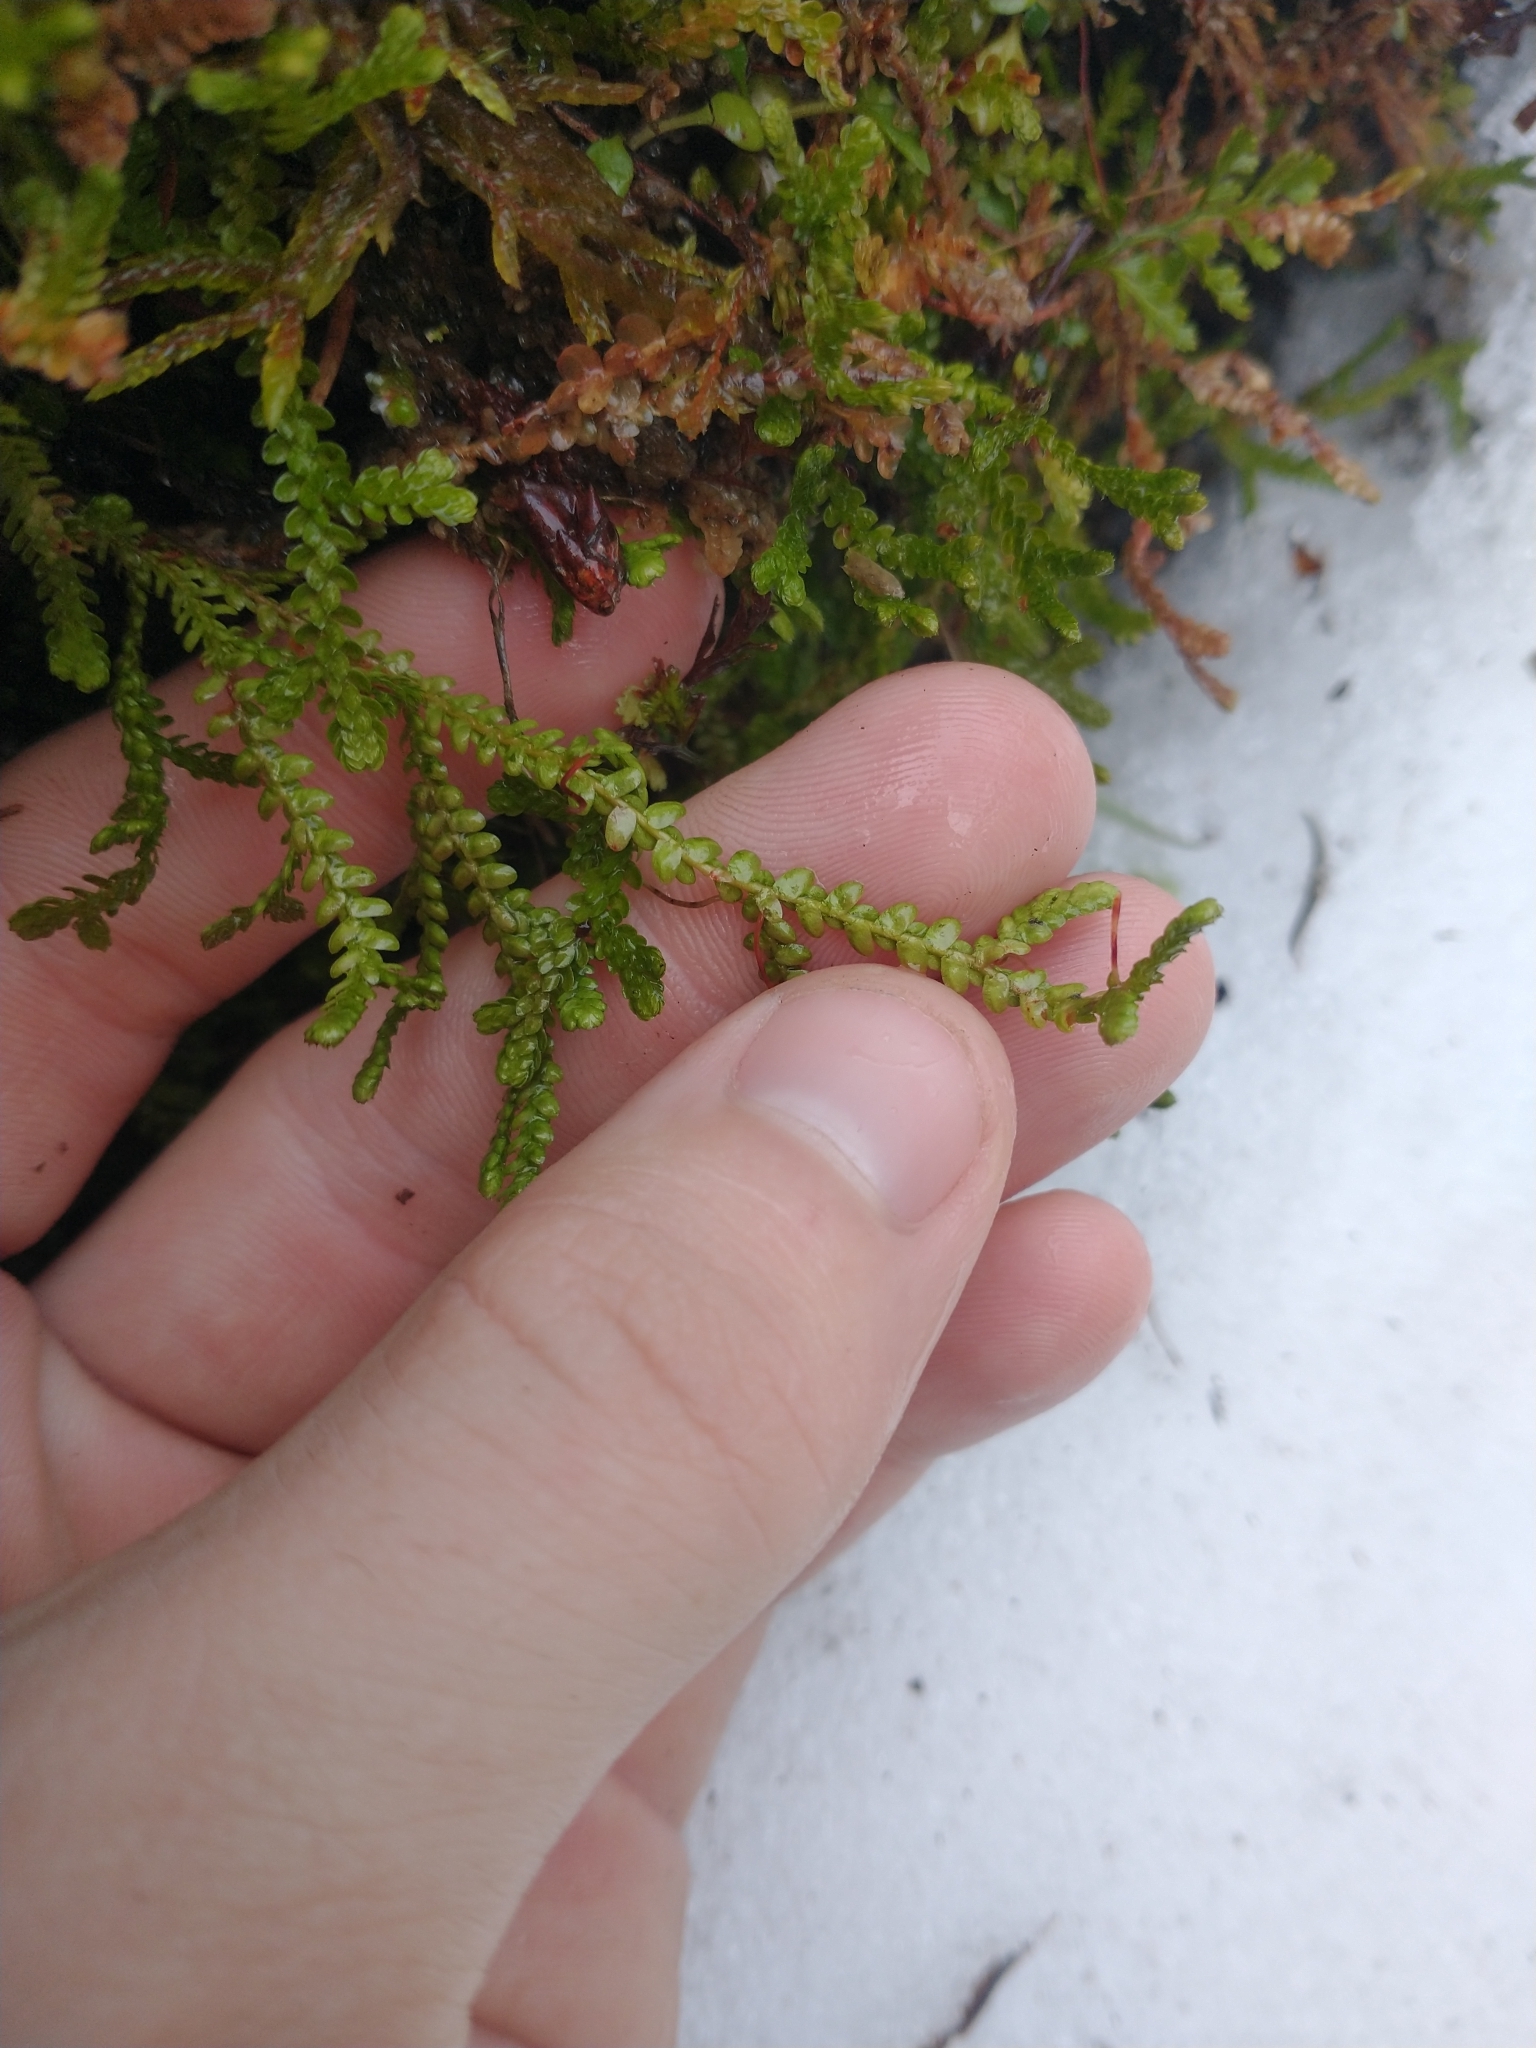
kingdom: Plantae
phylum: Tracheophyta
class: Lycopodiopsida
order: Selaginellales
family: Selaginellaceae
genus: Selaginella
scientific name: Selaginella douglasii
